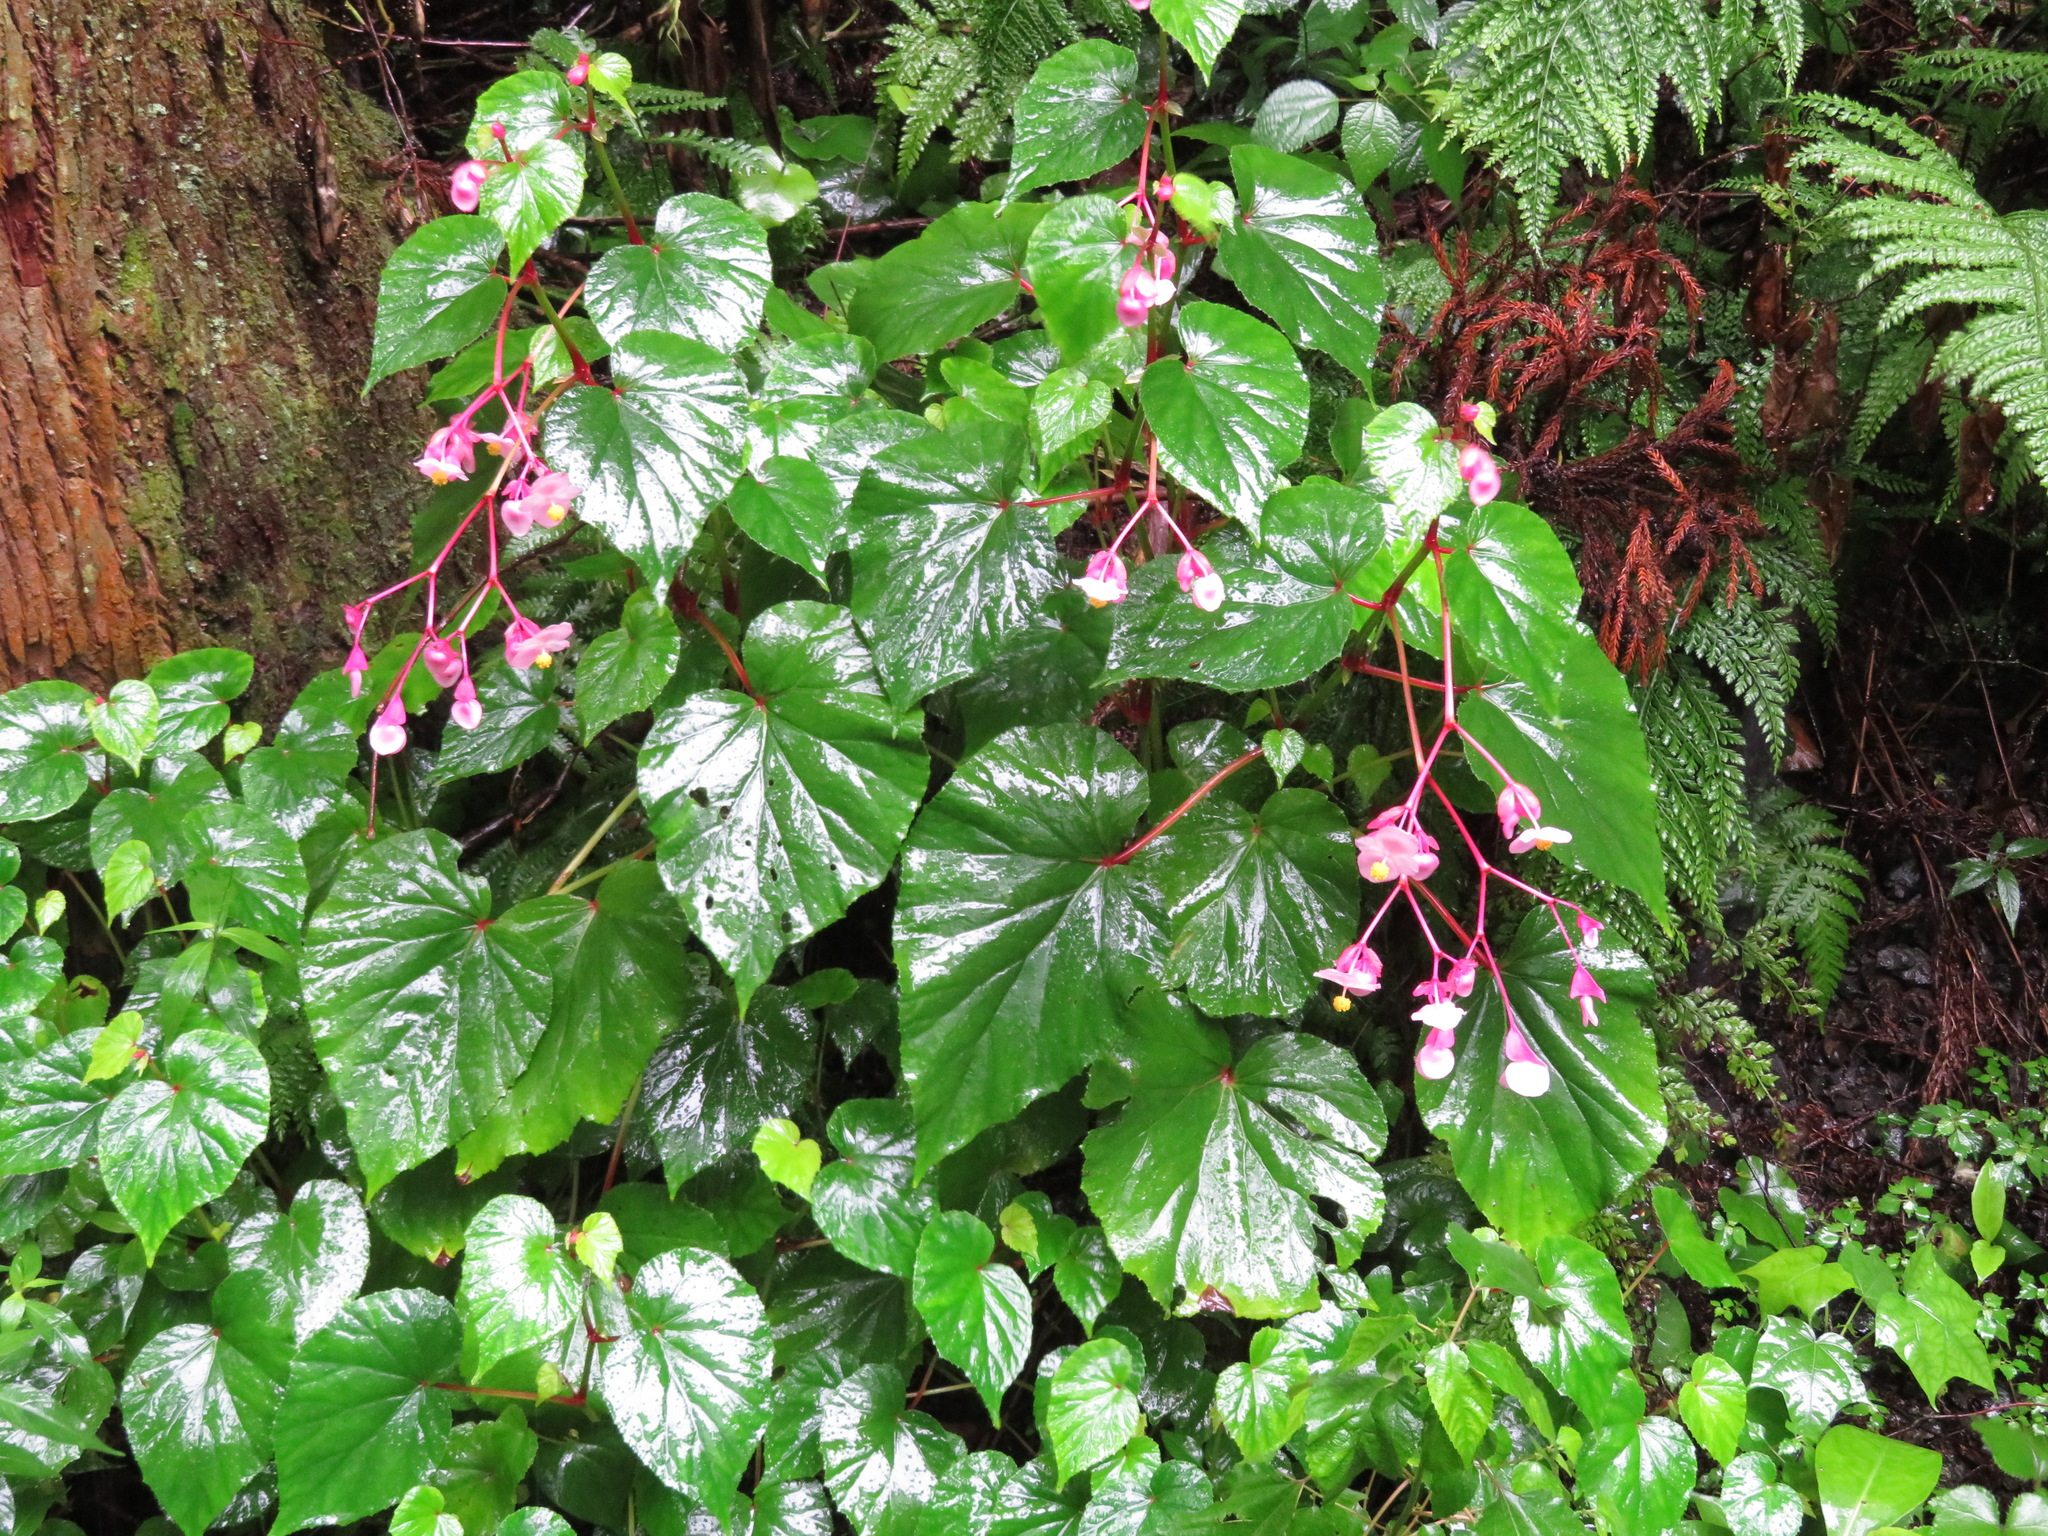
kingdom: Plantae
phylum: Tracheophyta
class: Magnoliopsida
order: Cucurbitales
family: Begoniaceae
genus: Begonia
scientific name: Begonia grandis
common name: Hardy begonia
